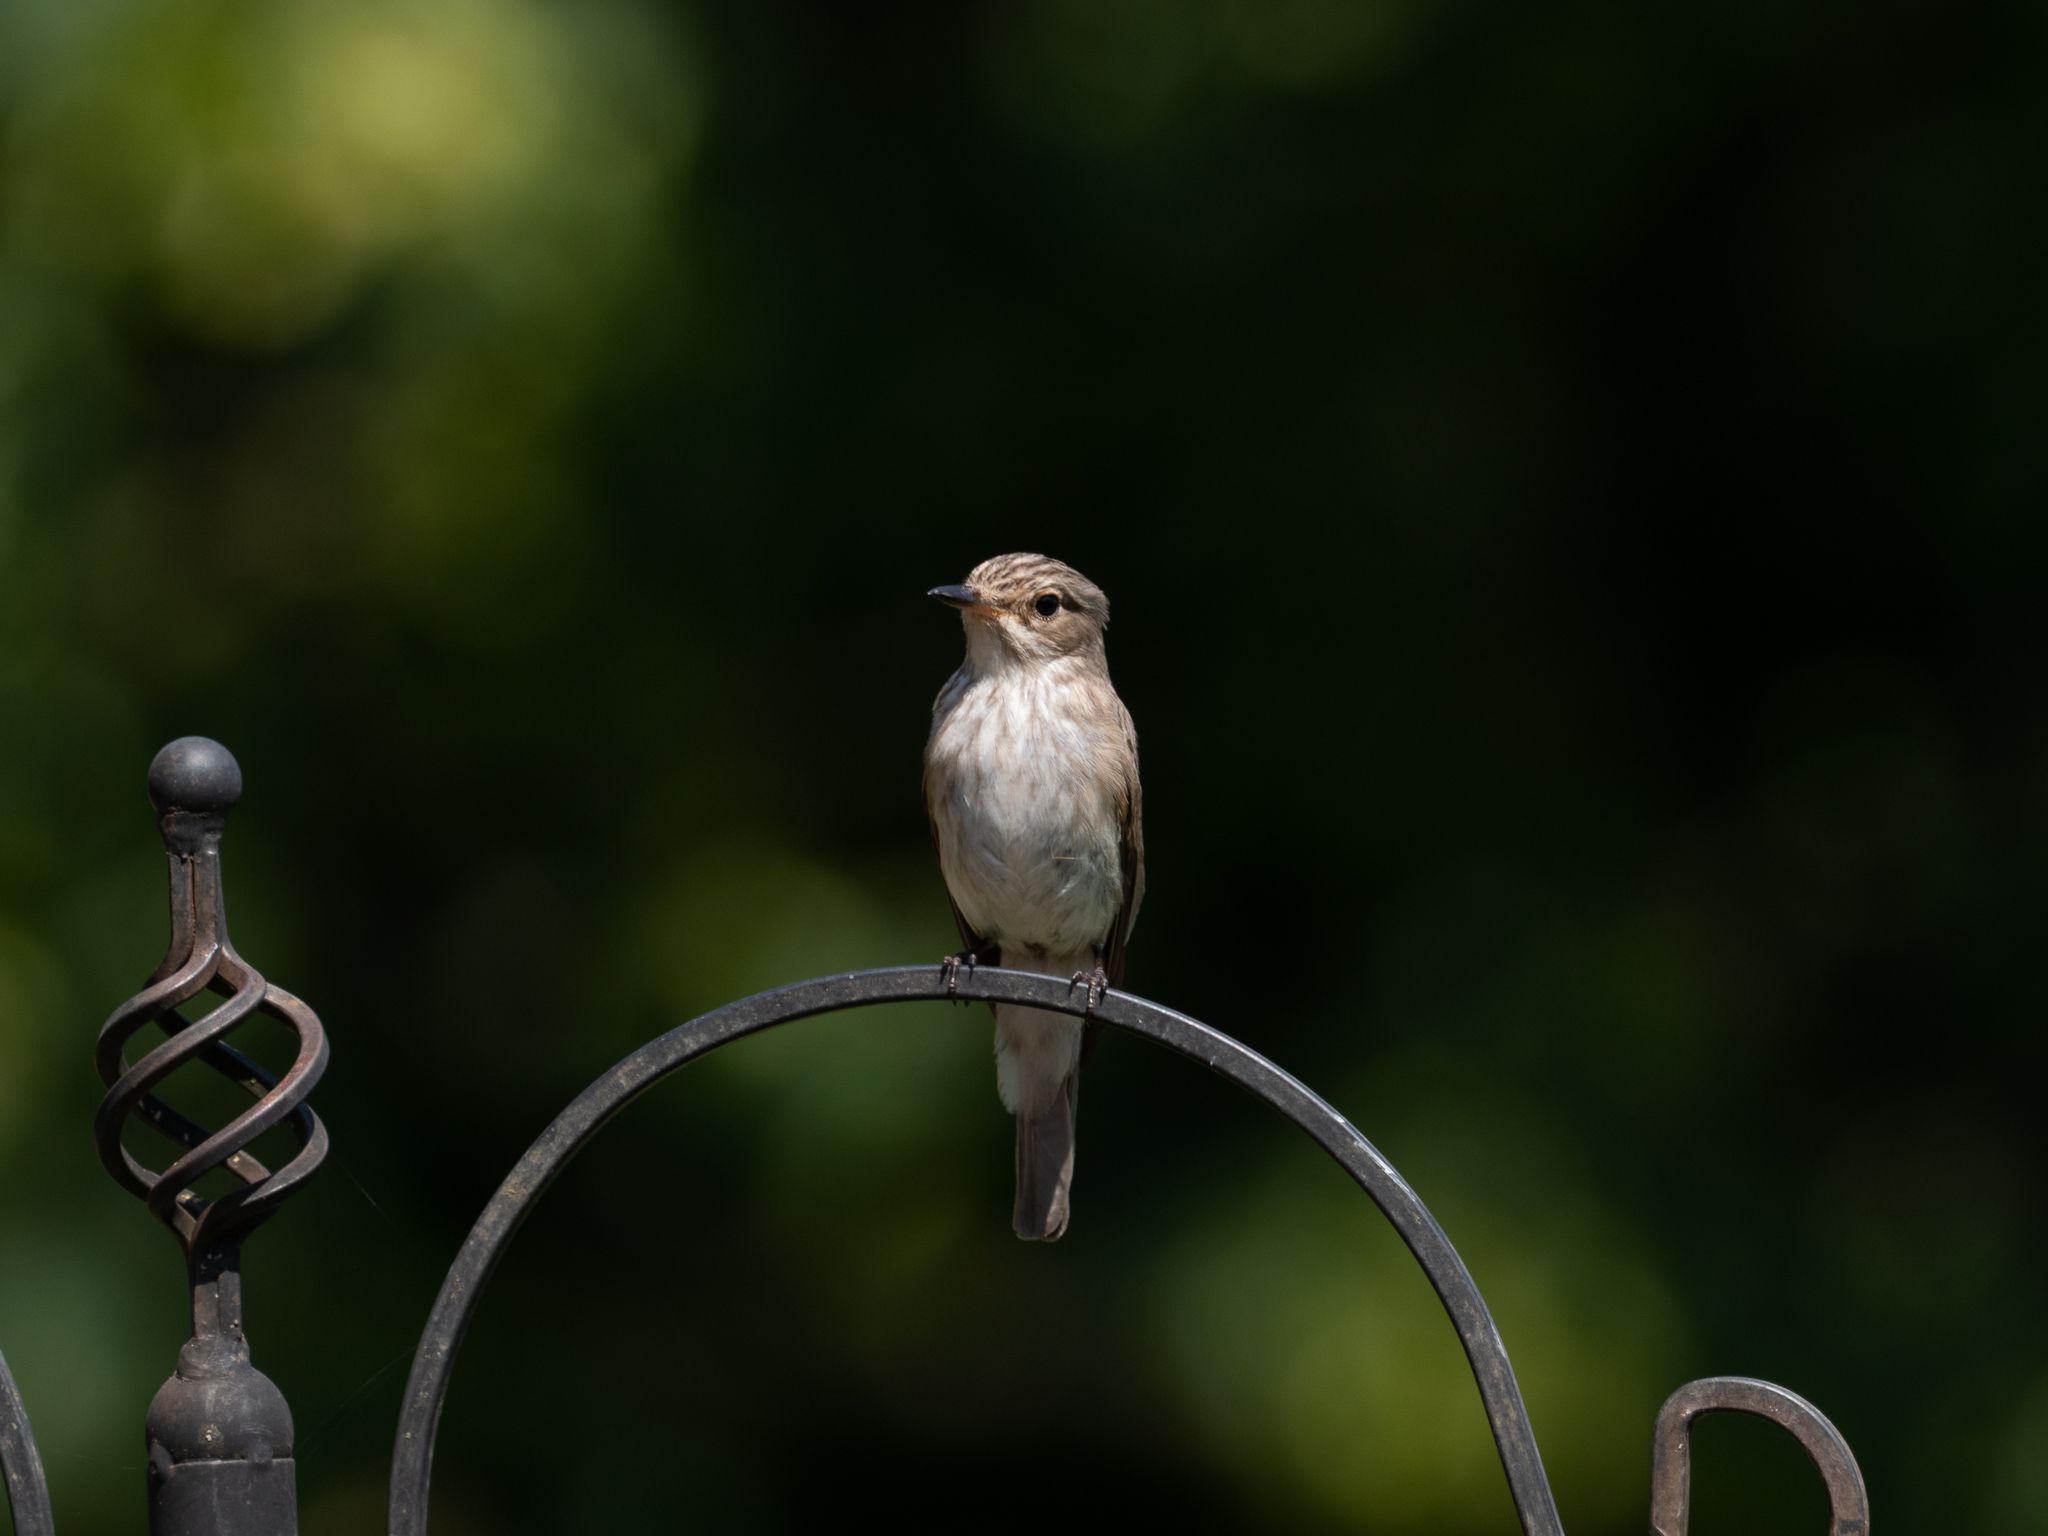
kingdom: Animalia
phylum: Chordata
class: Aves
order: Passeriformes
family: Muscicapidae
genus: Muscicapa
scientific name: Muscicapa striata
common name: Spotted flycatcher
